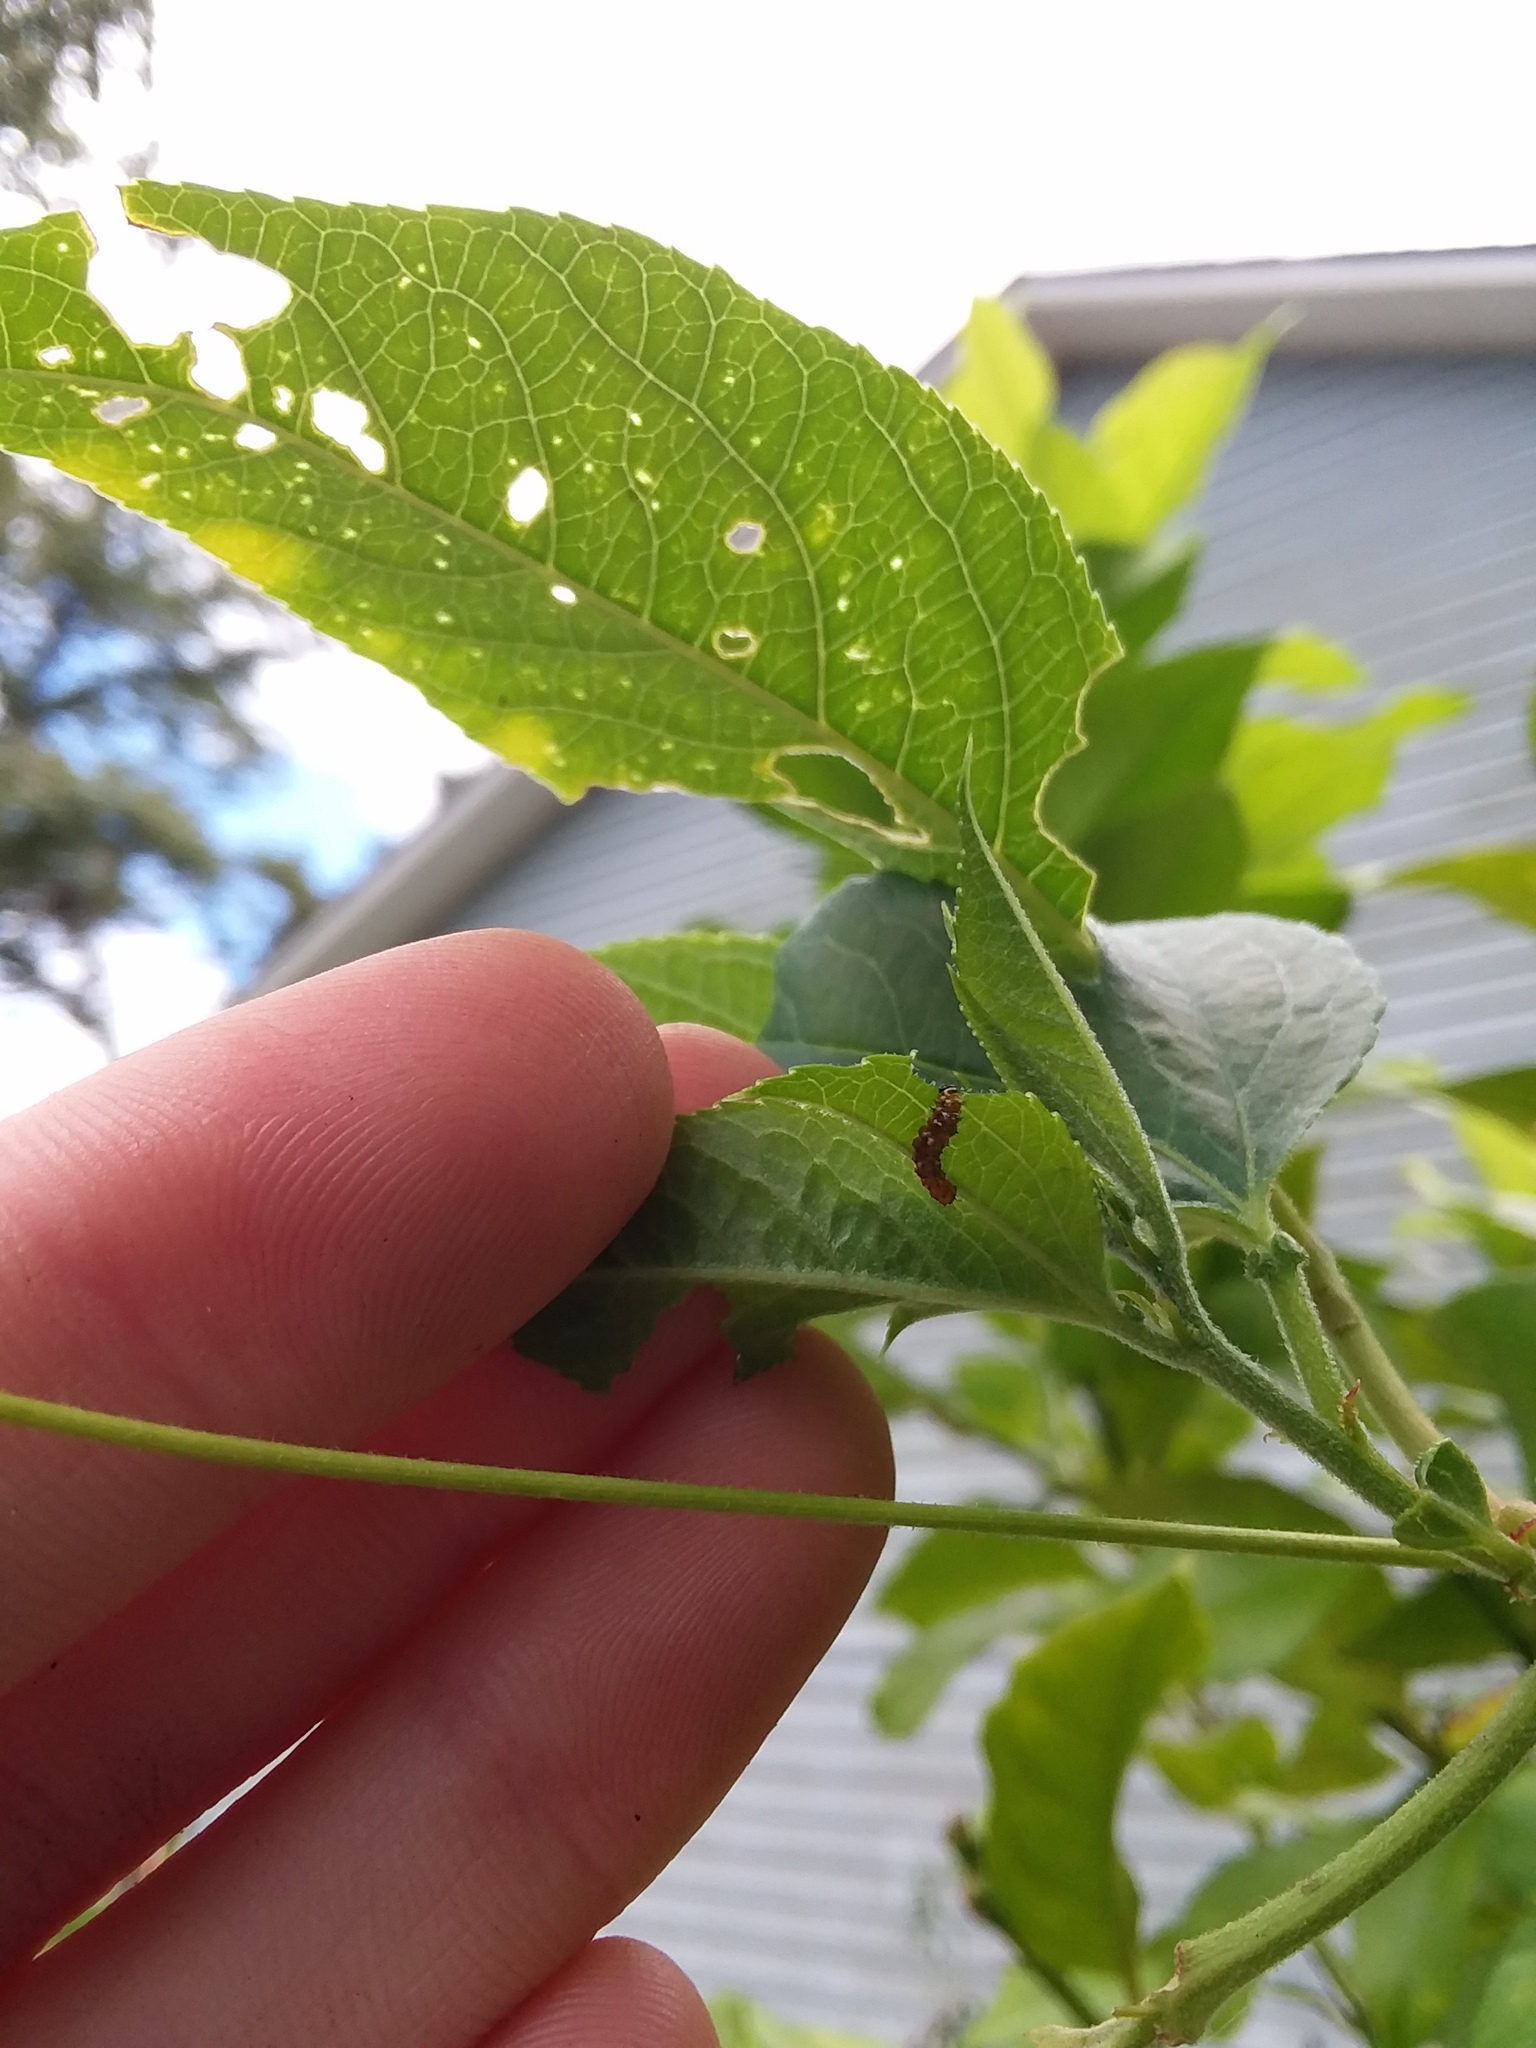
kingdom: Animalia
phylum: Arthropoda
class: Insecta
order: Lepidoptera
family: Nymphalidae
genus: Dione
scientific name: Dione vanillae
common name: Gulf fritillary
